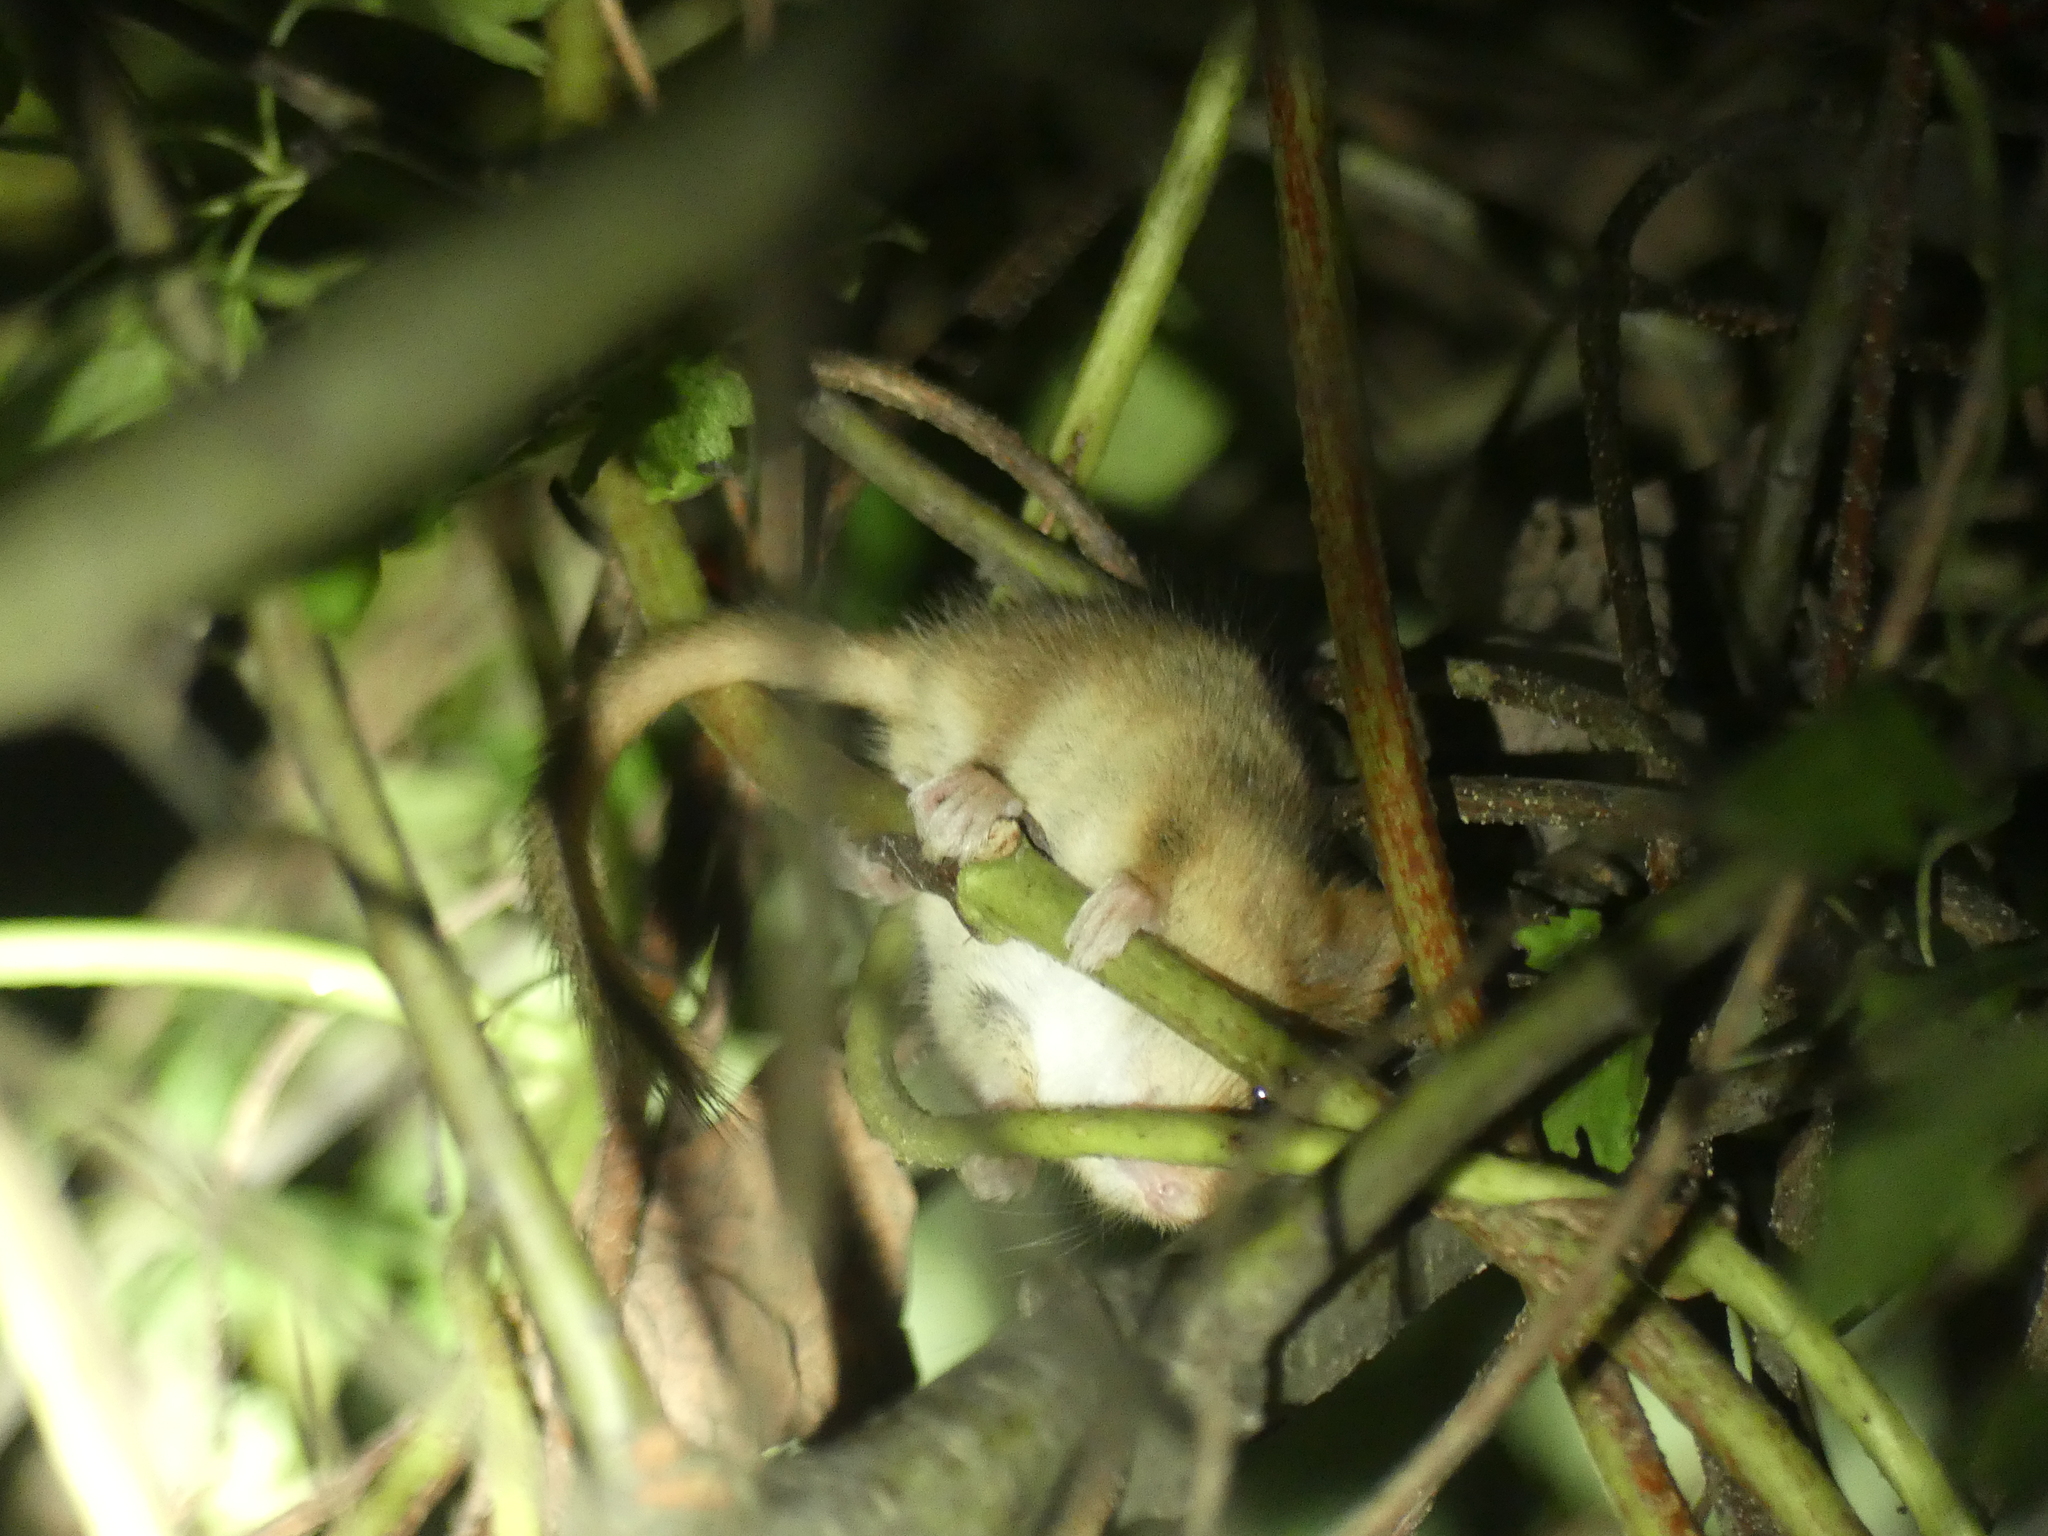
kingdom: Animalia
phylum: Chordata
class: Mammalia
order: Rodentia
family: Gliridae
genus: Muscardinus
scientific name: Muscardinus avellanarius
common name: Hazel dormouse
